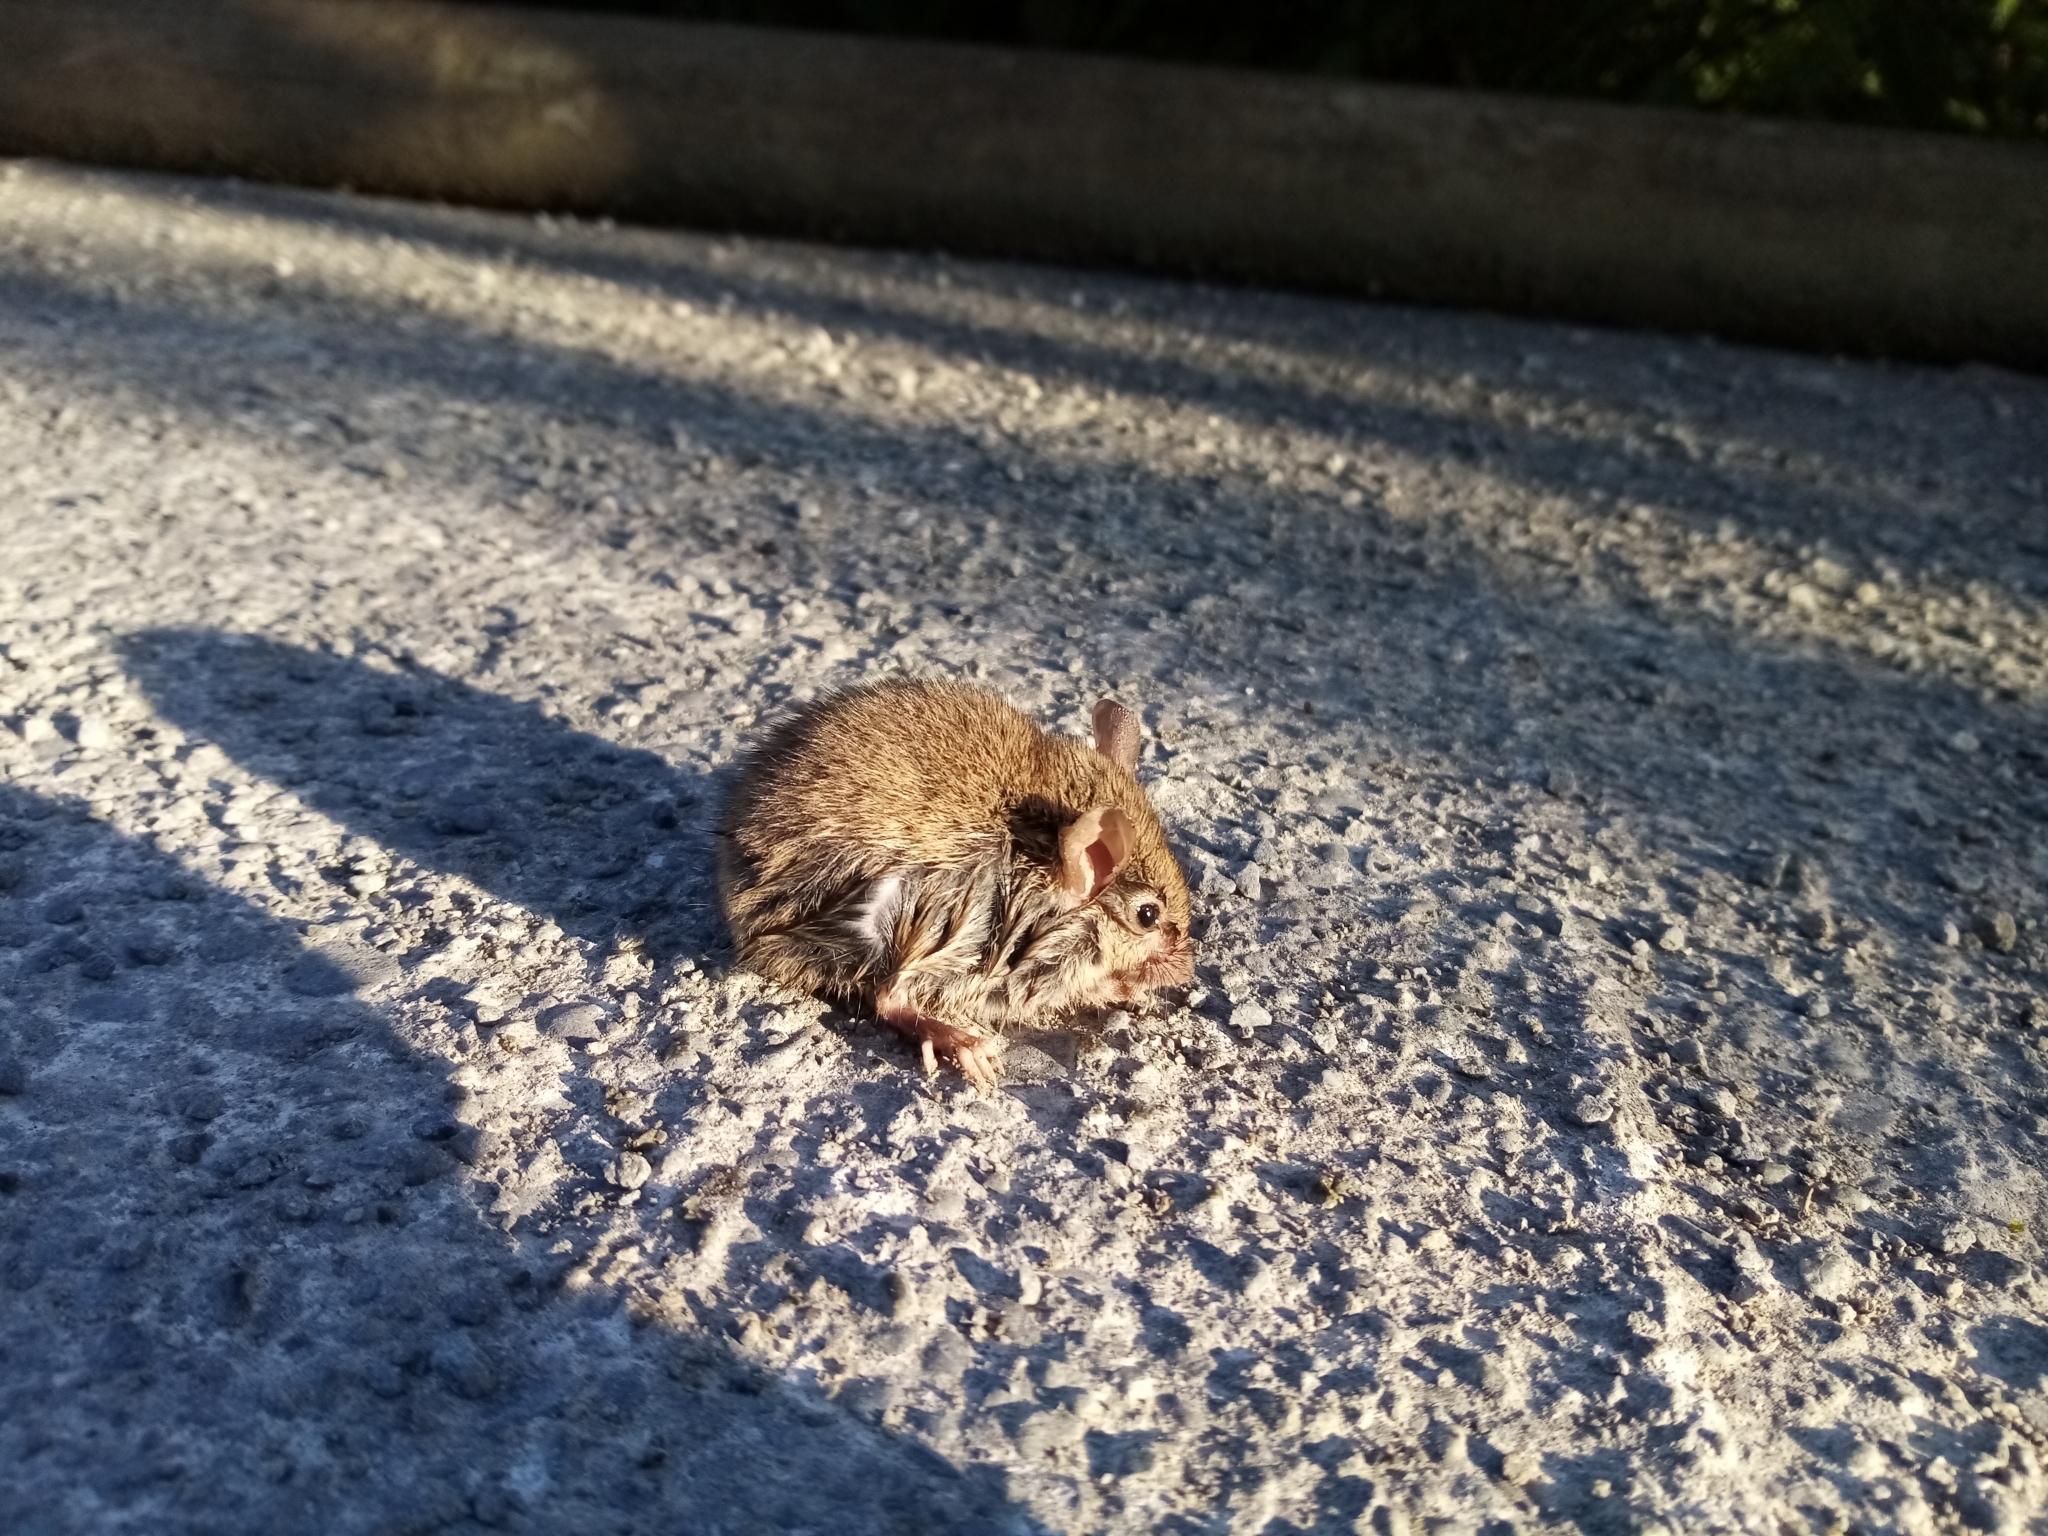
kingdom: Animalia
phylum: Chordata
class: Mammalia
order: Rodentia
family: Muridae
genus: Mus
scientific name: Mus musculus
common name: House mouse
